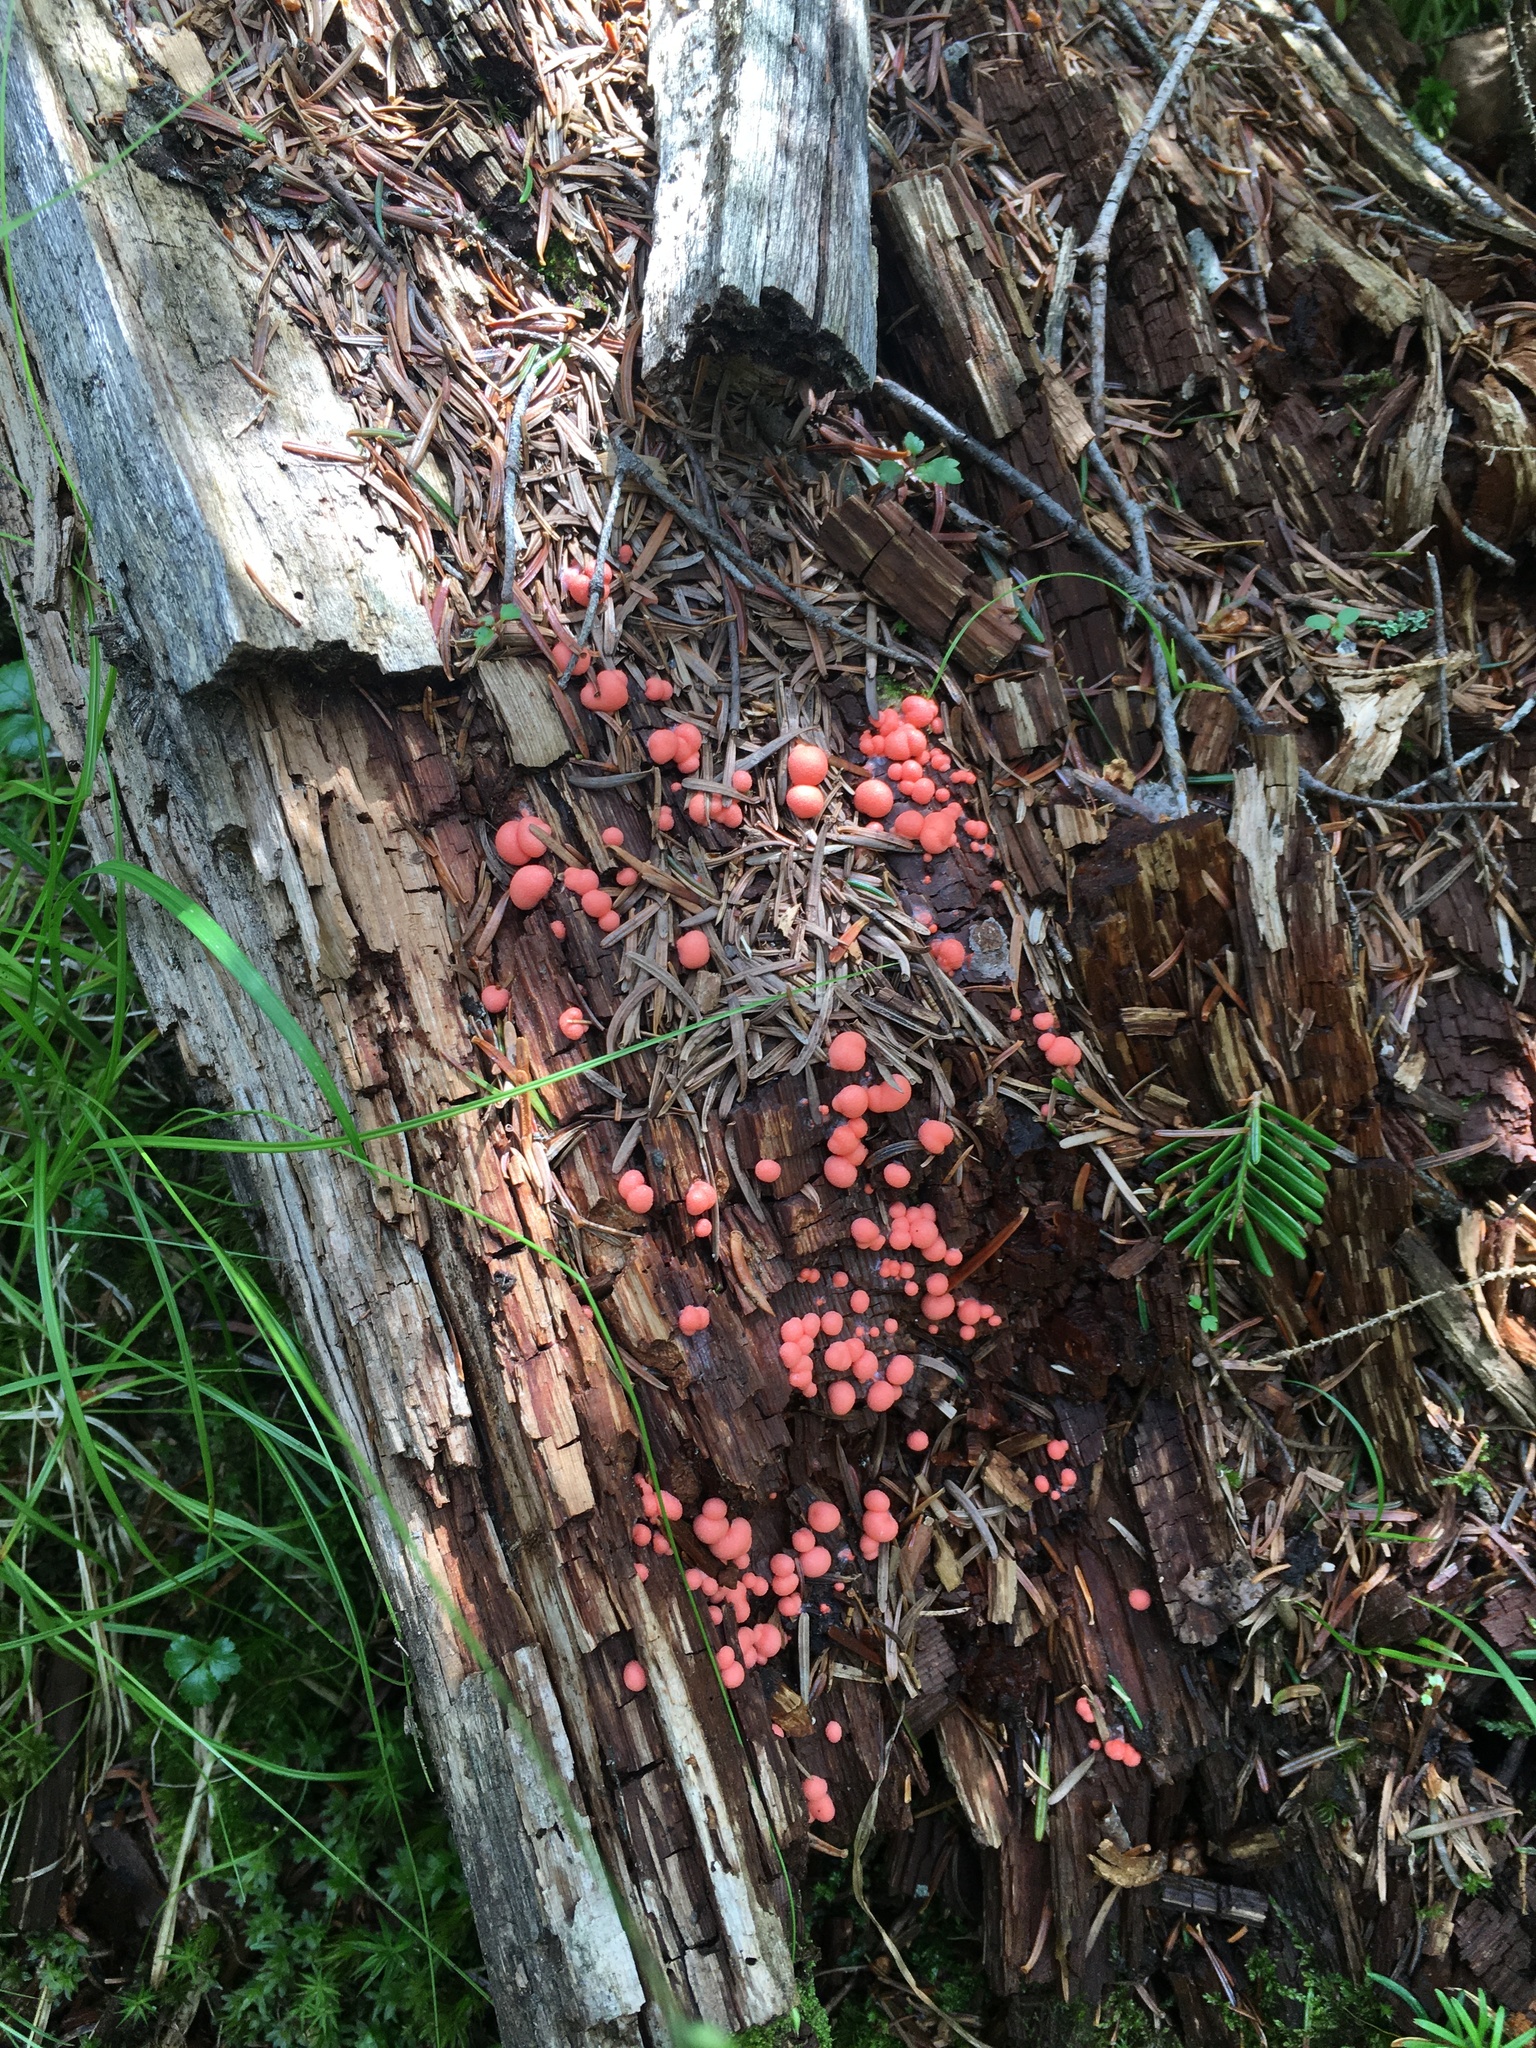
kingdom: Protozoa
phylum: Mycetozoa
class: Myxomycetes
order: Cribrariales
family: Tubiferaceae
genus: Lycogala
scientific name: Lycogala epidendrum
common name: Wolf's milk
